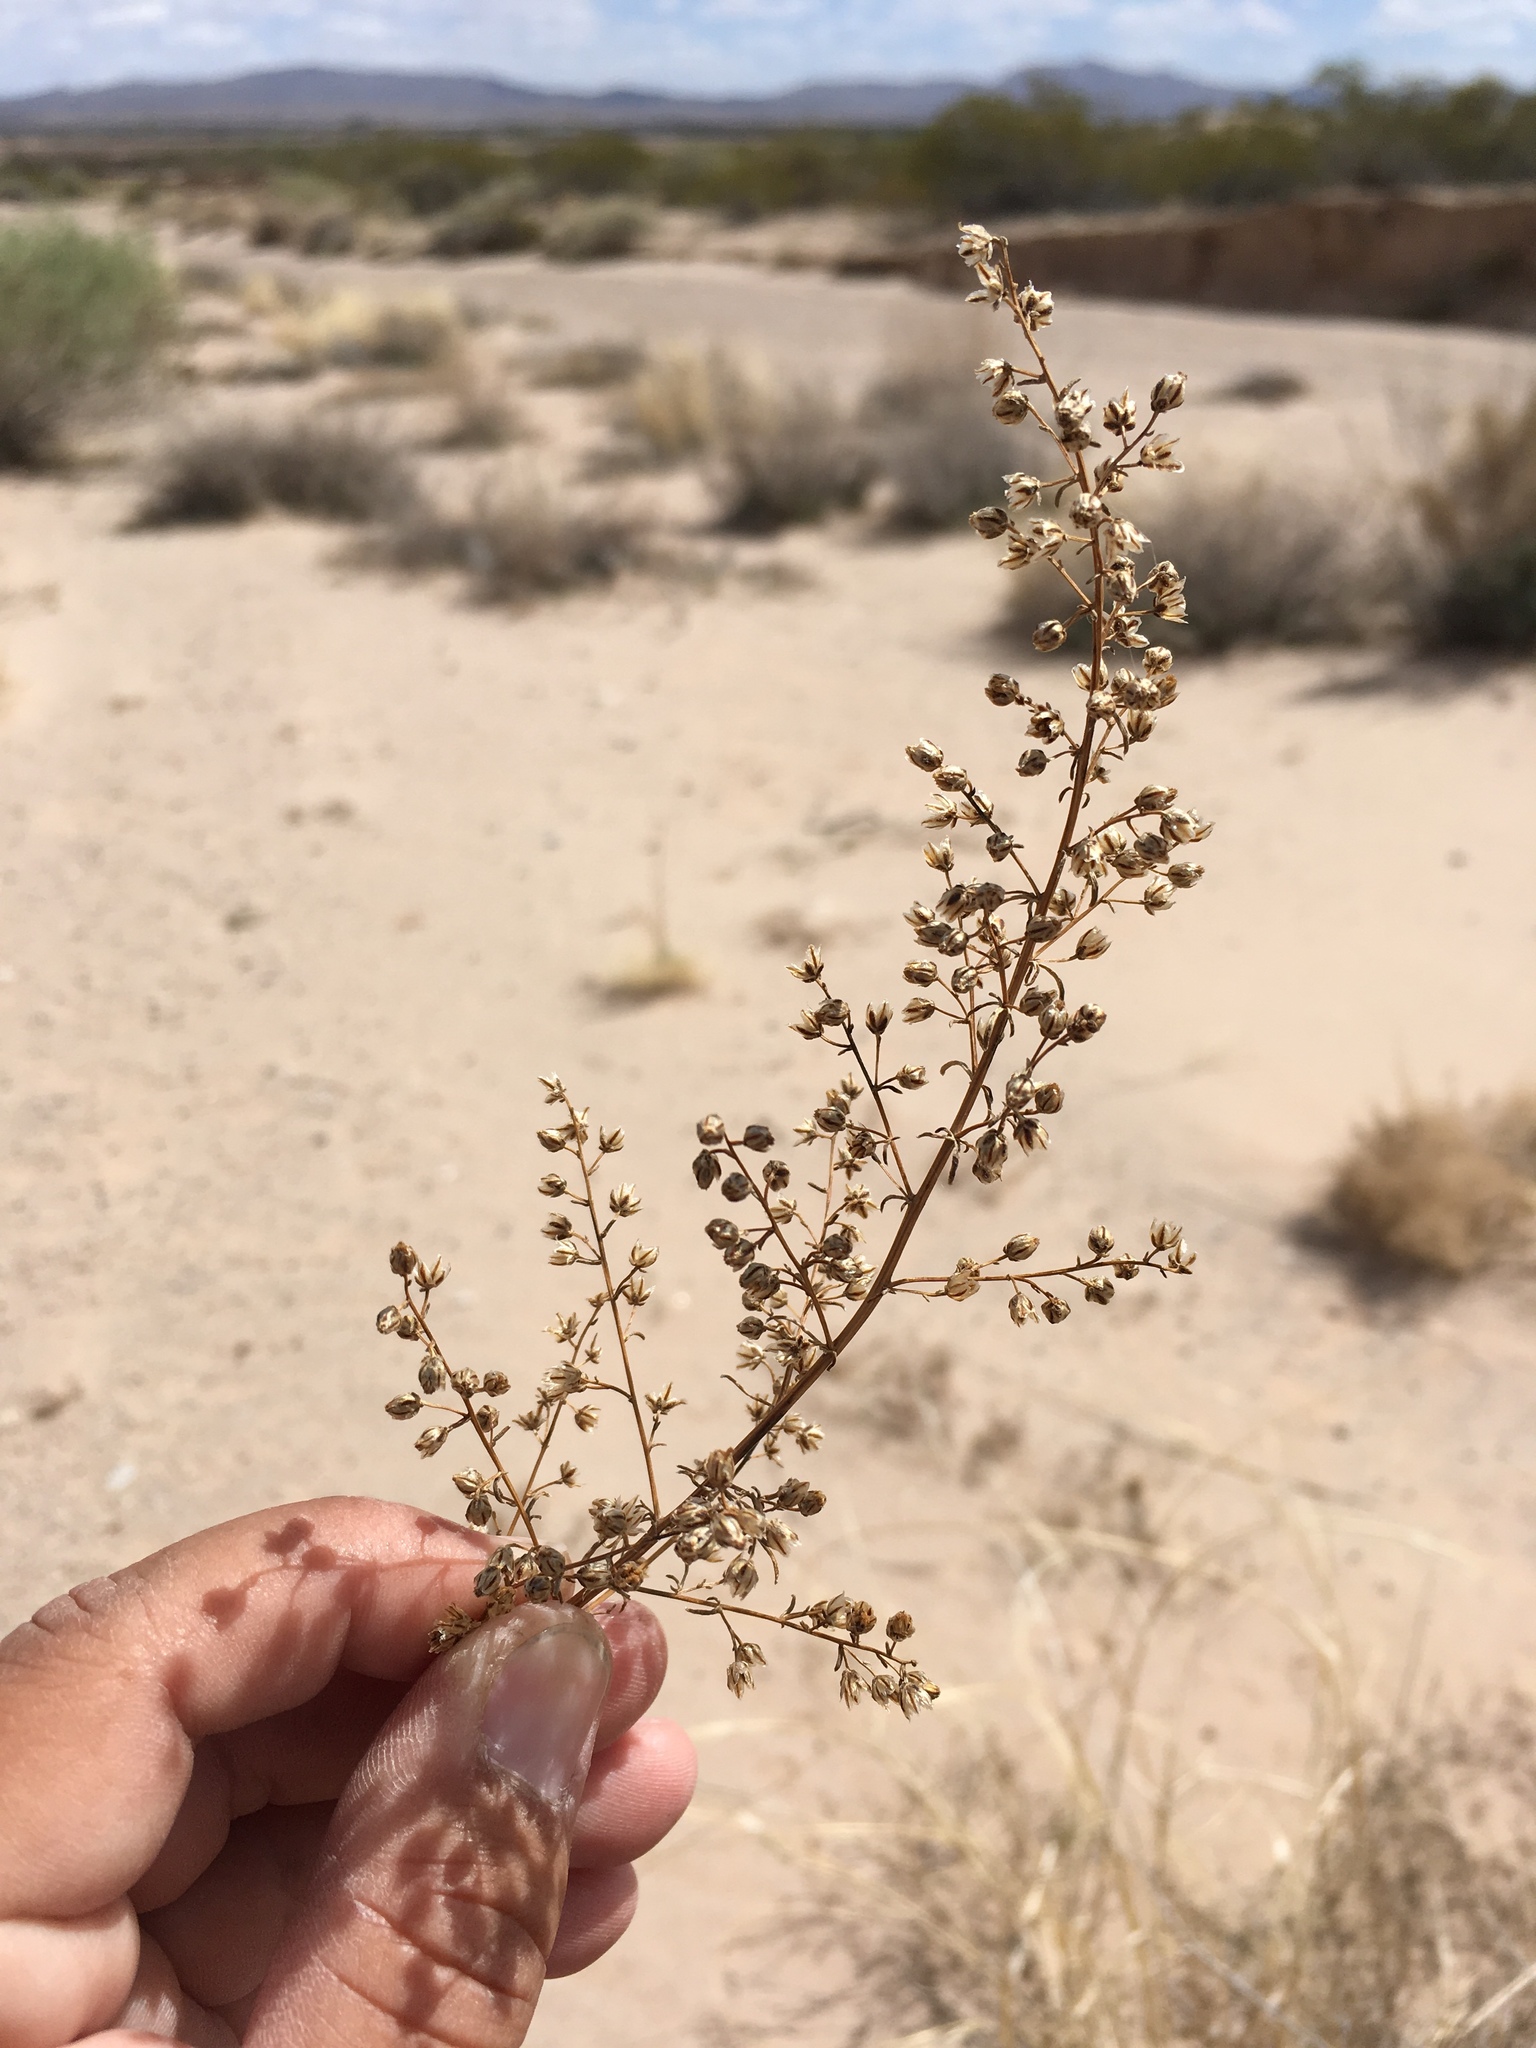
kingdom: Plantae
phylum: Tracheophyta
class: Magnoliopsida
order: Asterales
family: Asteraceae
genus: Artemisia
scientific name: Artemisia campestris
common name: Field wormwood
